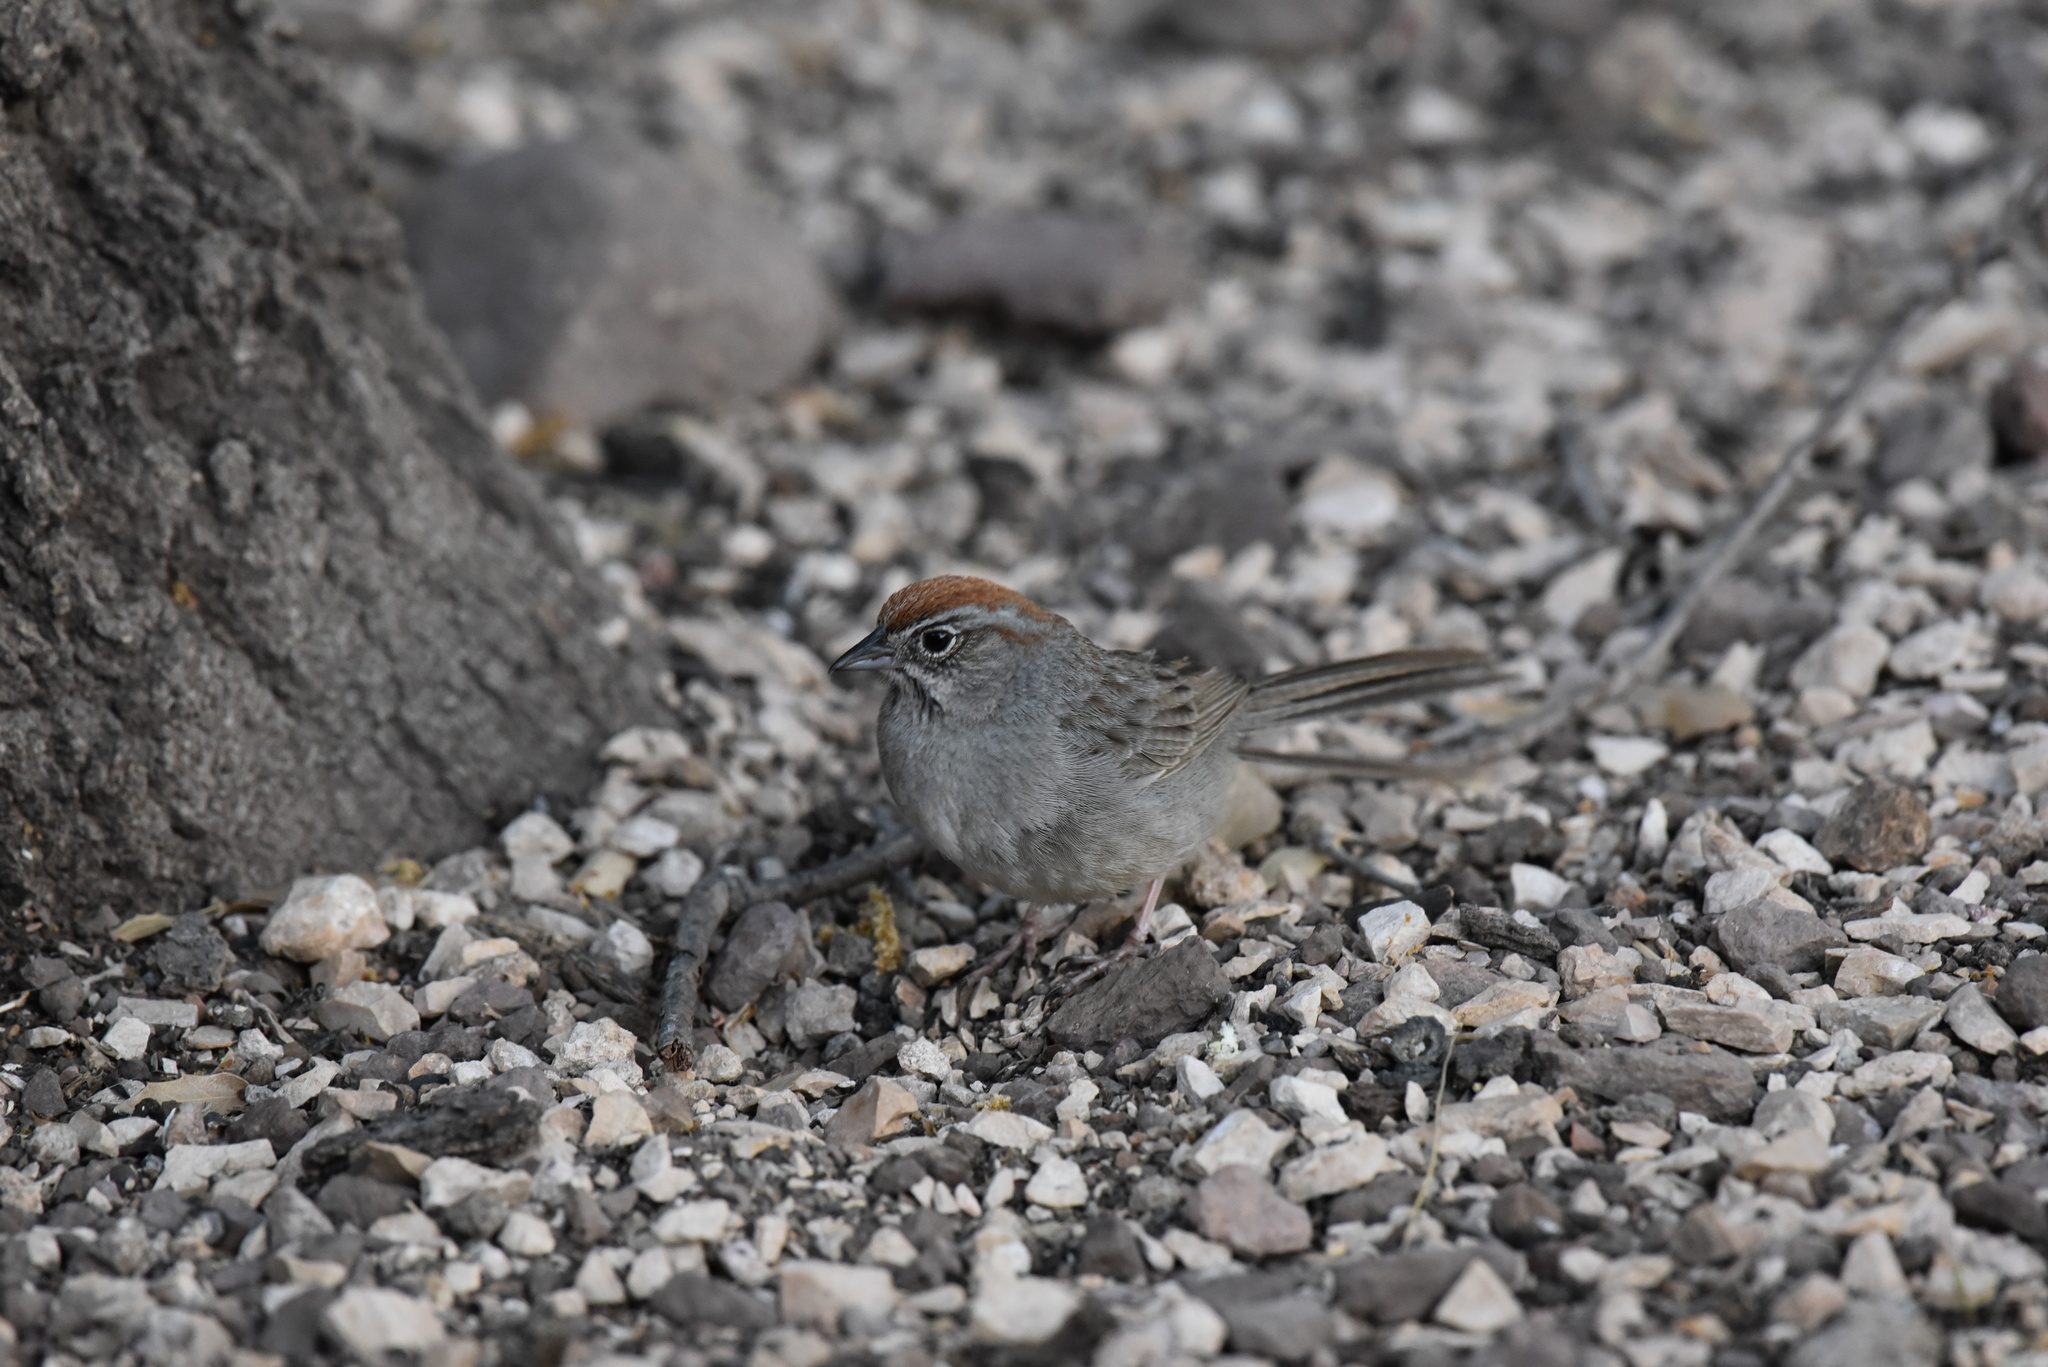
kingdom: Animalia
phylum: Chordata
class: Aves
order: Passeriformes
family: Passerellidae
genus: Aimophila
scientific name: Aimophila ruficeps
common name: Rufous-crowned sparrow
